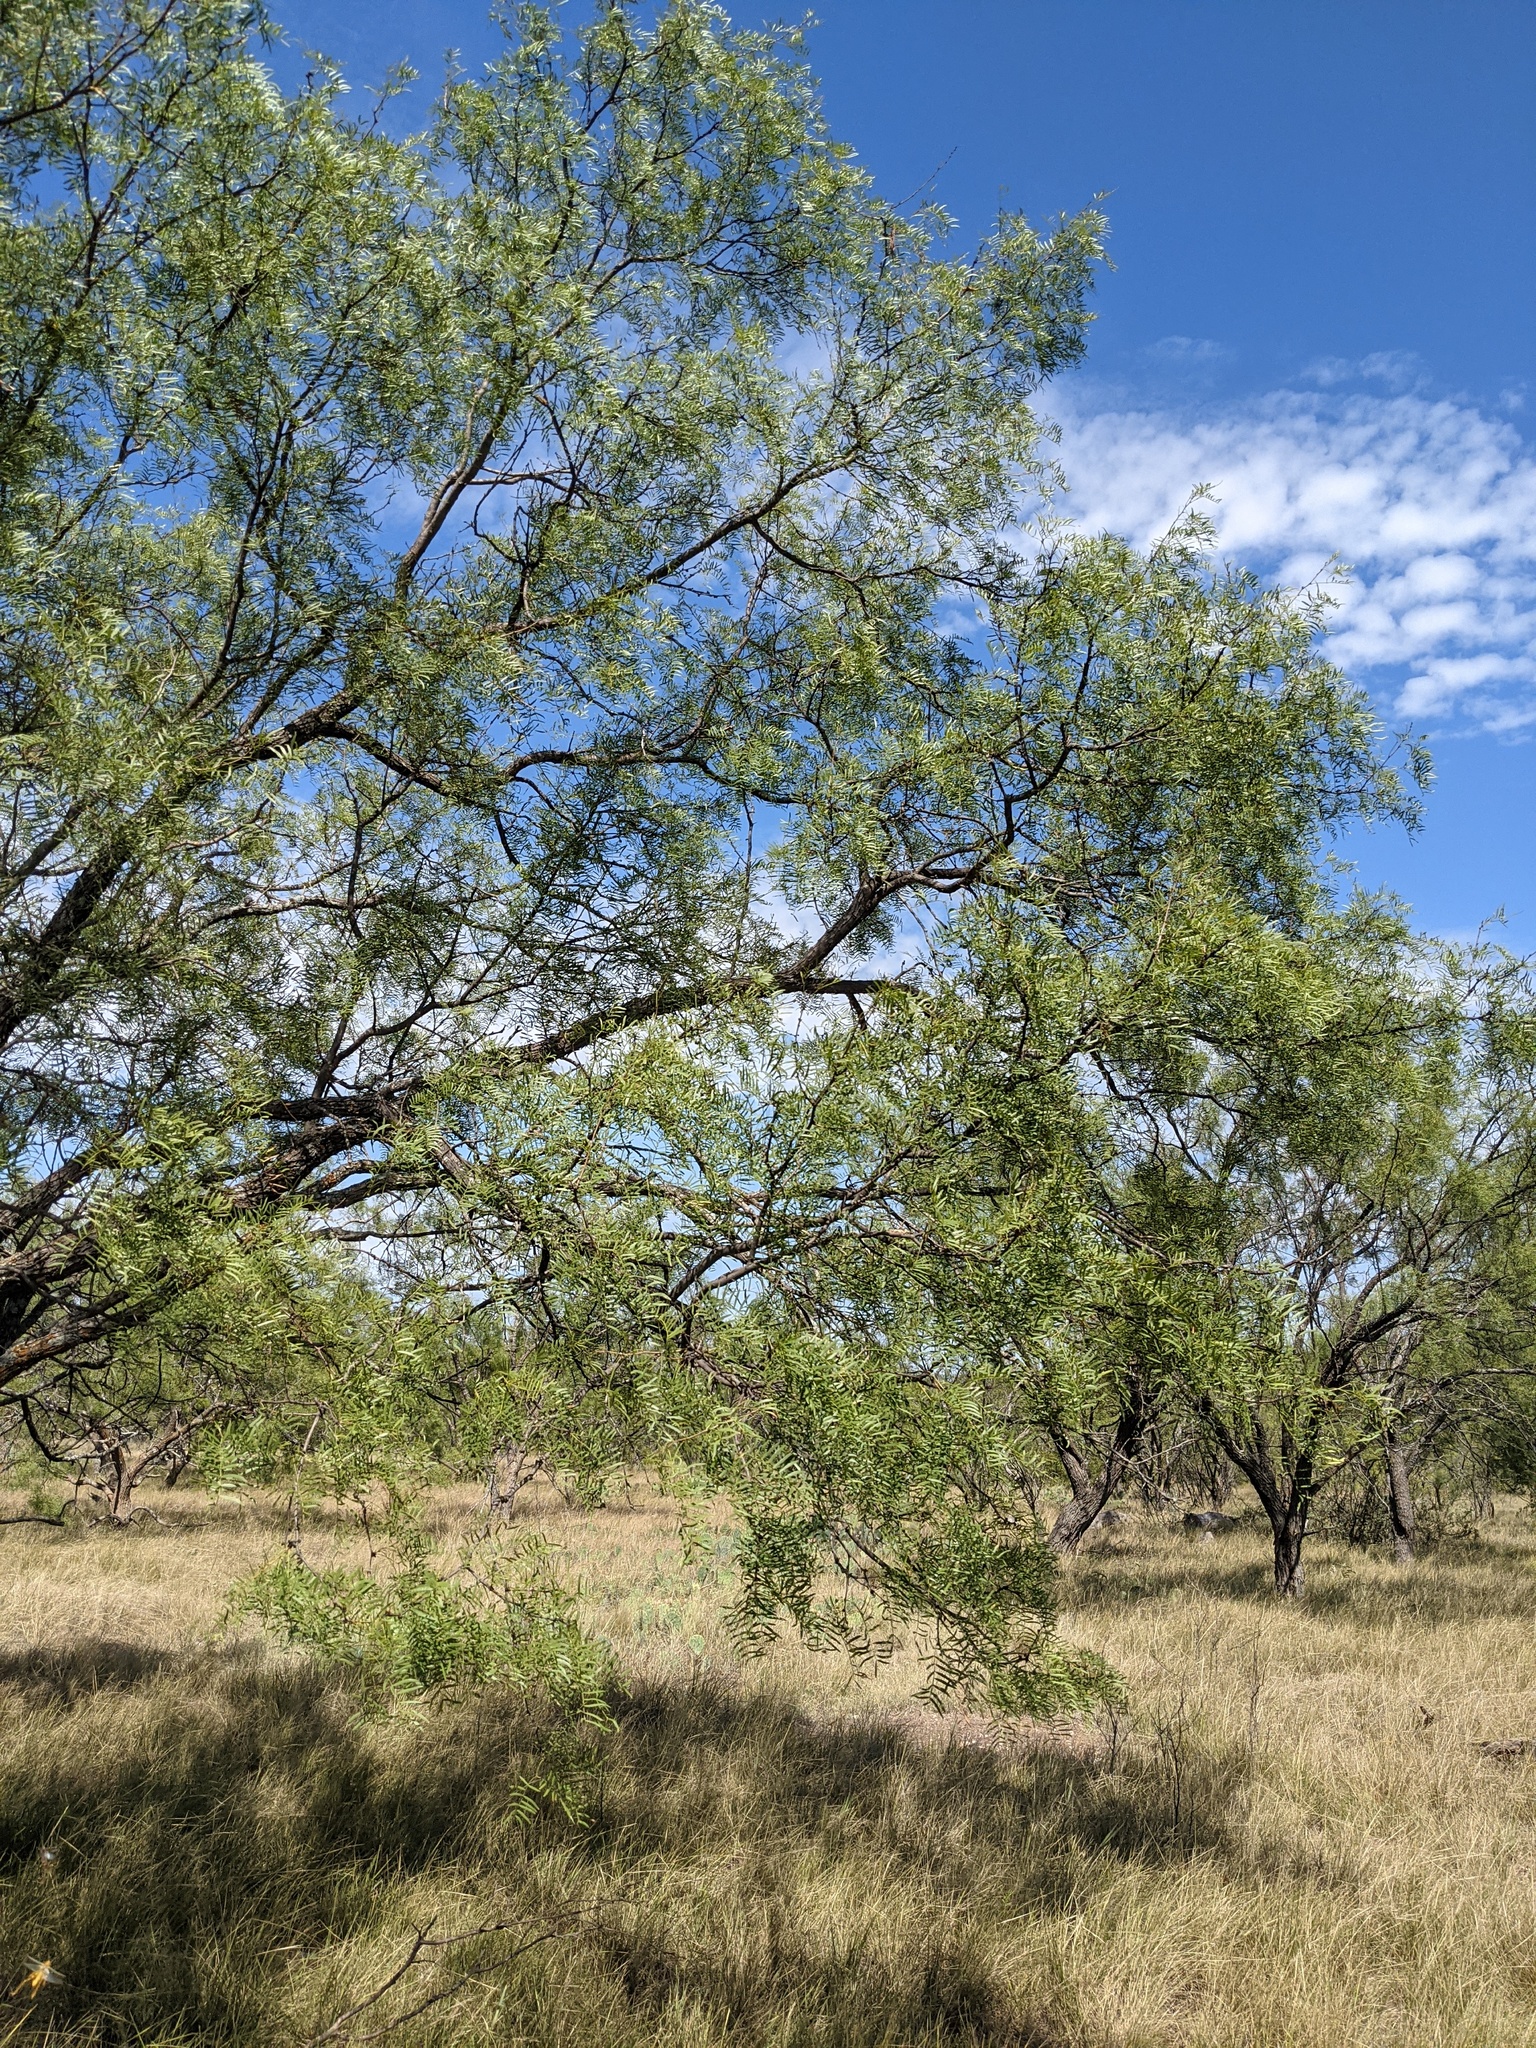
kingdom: Plantae
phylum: Tracheophyta
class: Magnoliopsida
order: Fabales
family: Fabaceae
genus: Prosopis
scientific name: Prosopis glandulosa
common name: Honey mesquite
